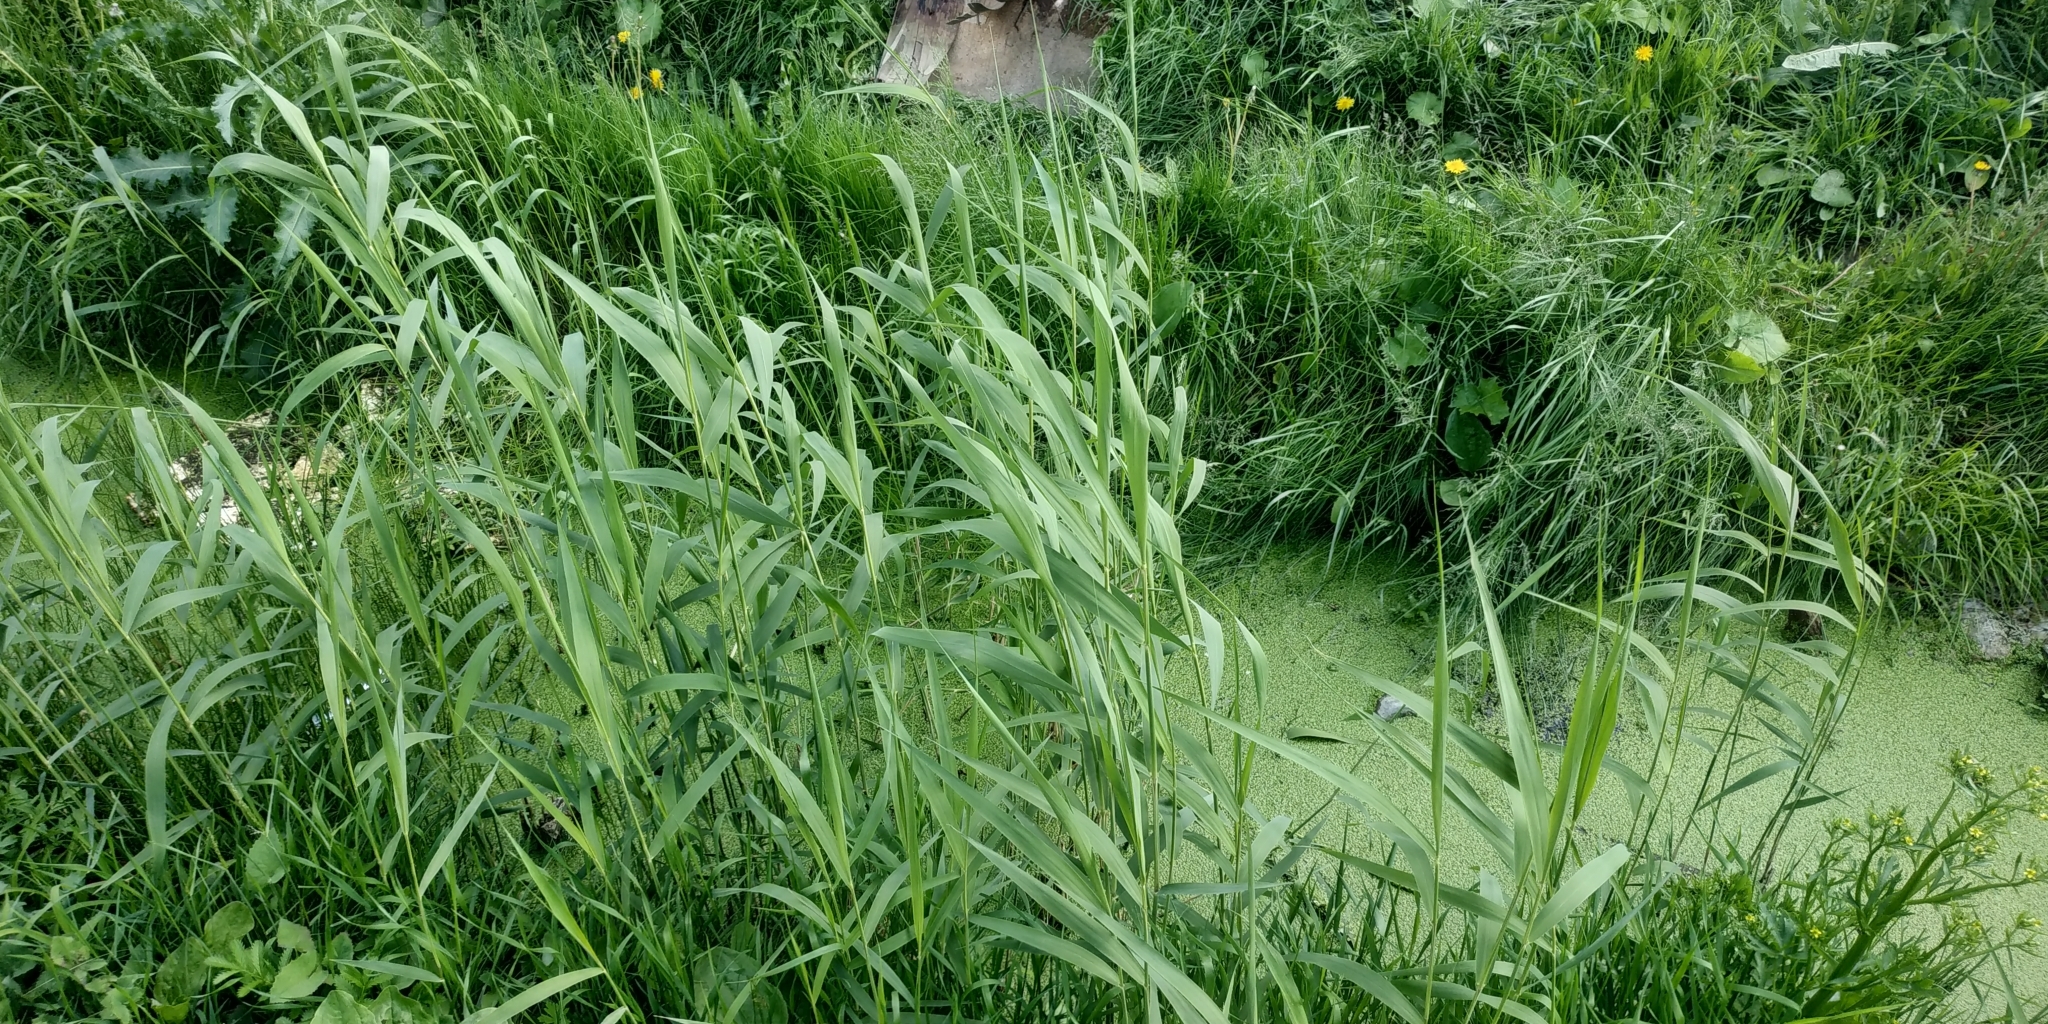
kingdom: Plantae
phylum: Tracheophyta
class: Liliopsida
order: Poales
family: Poaceae
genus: Phragmites
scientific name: Phragmites australis
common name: Common reed
